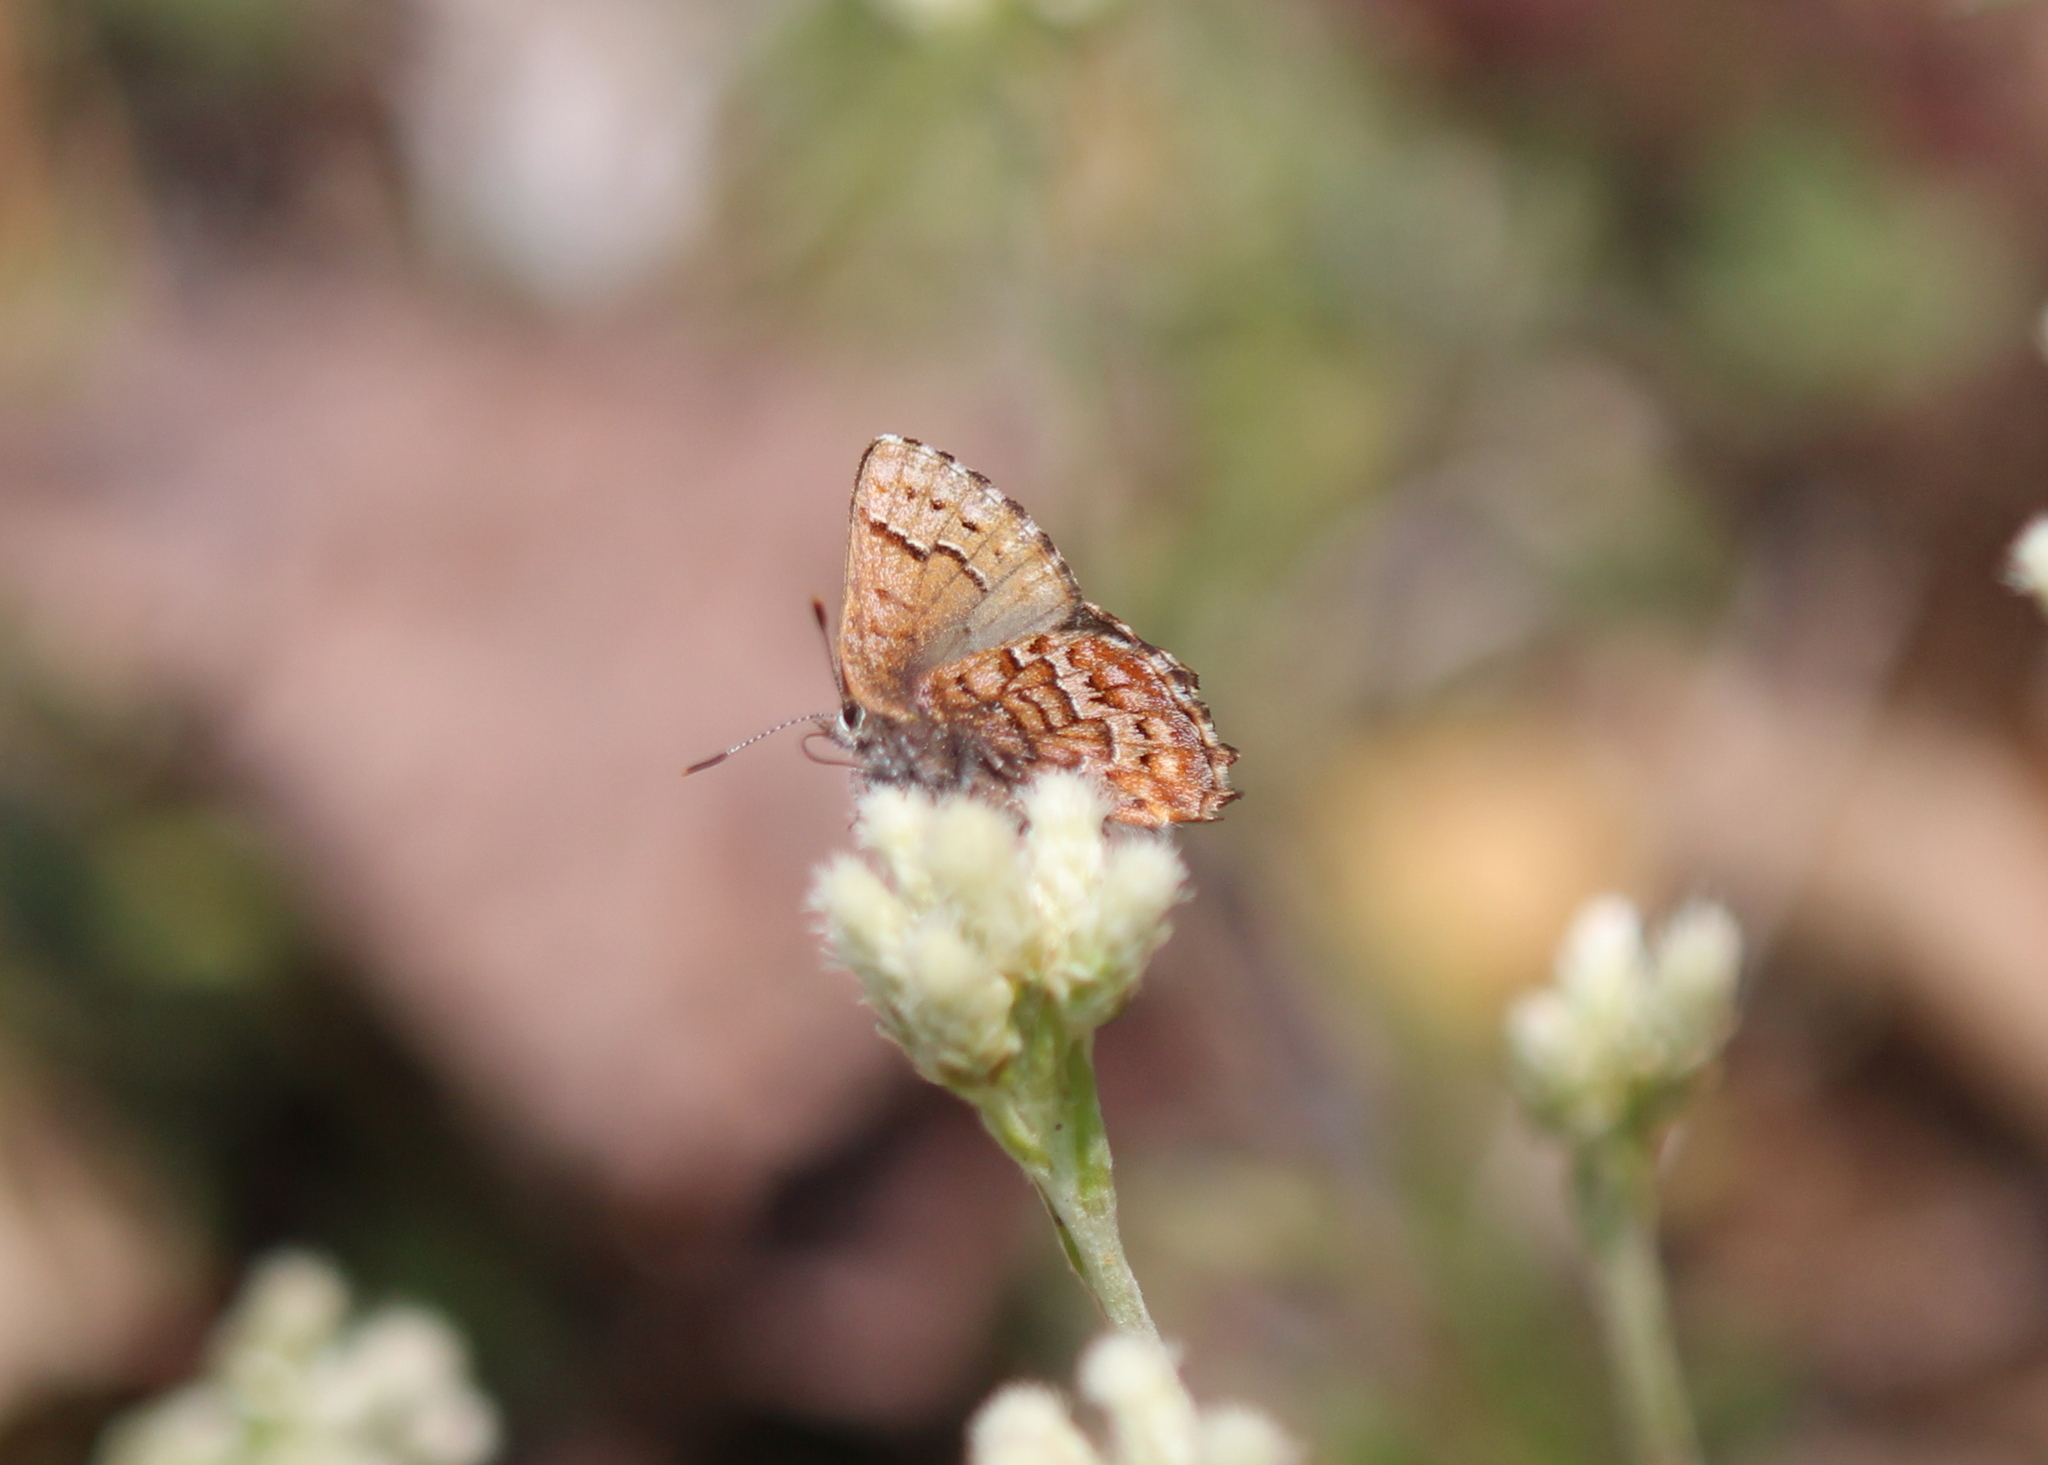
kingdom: Animalia
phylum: Arthropoda
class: Insecta
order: Lepidoptera
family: Lycaenidae
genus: Incisalia
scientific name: Incisalia niphon
